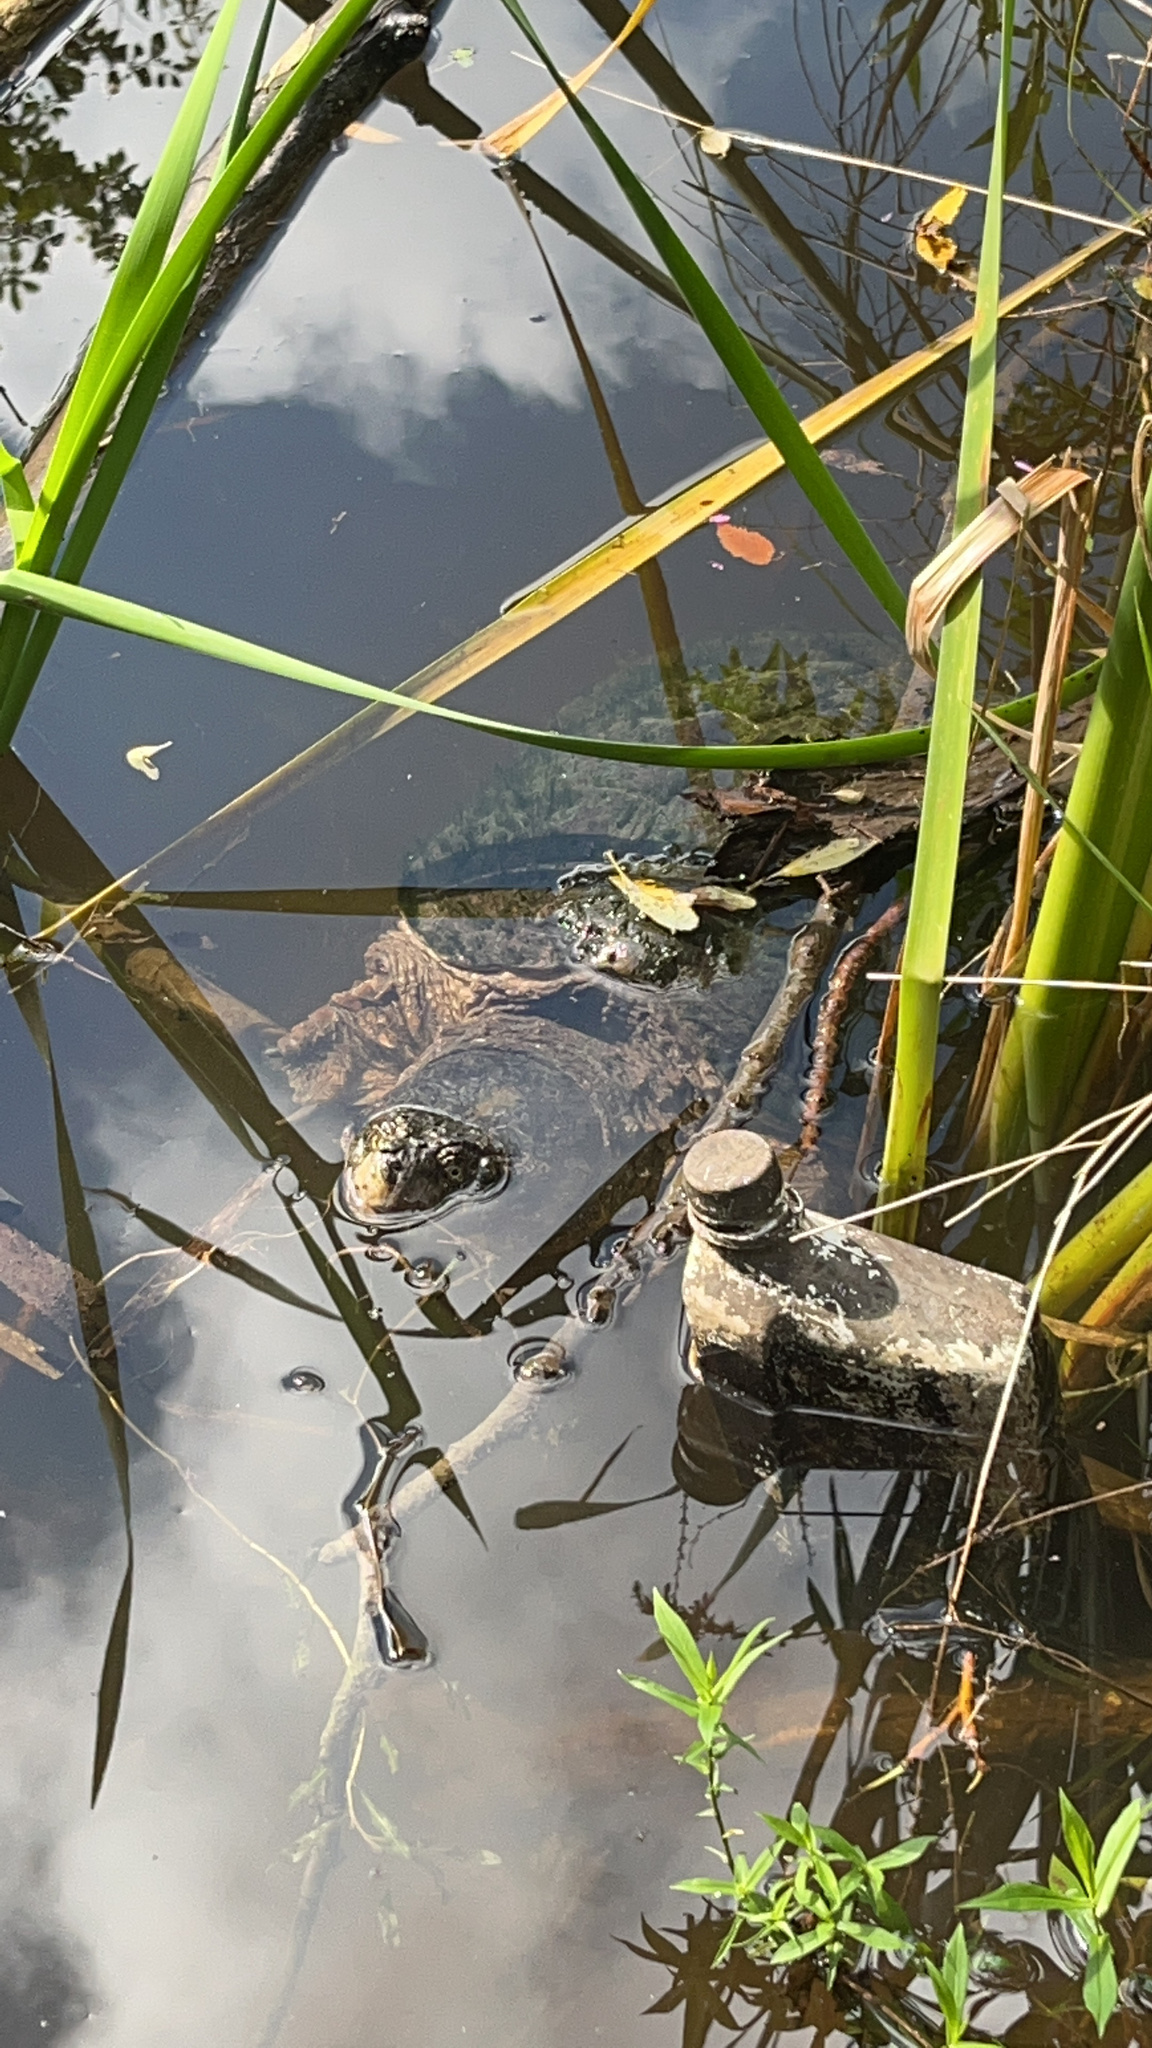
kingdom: Animalia
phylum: Chordata
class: Testudines
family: Chelydridae
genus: Chelydra
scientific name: Chelydra serpentina
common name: Common snapping turtle
